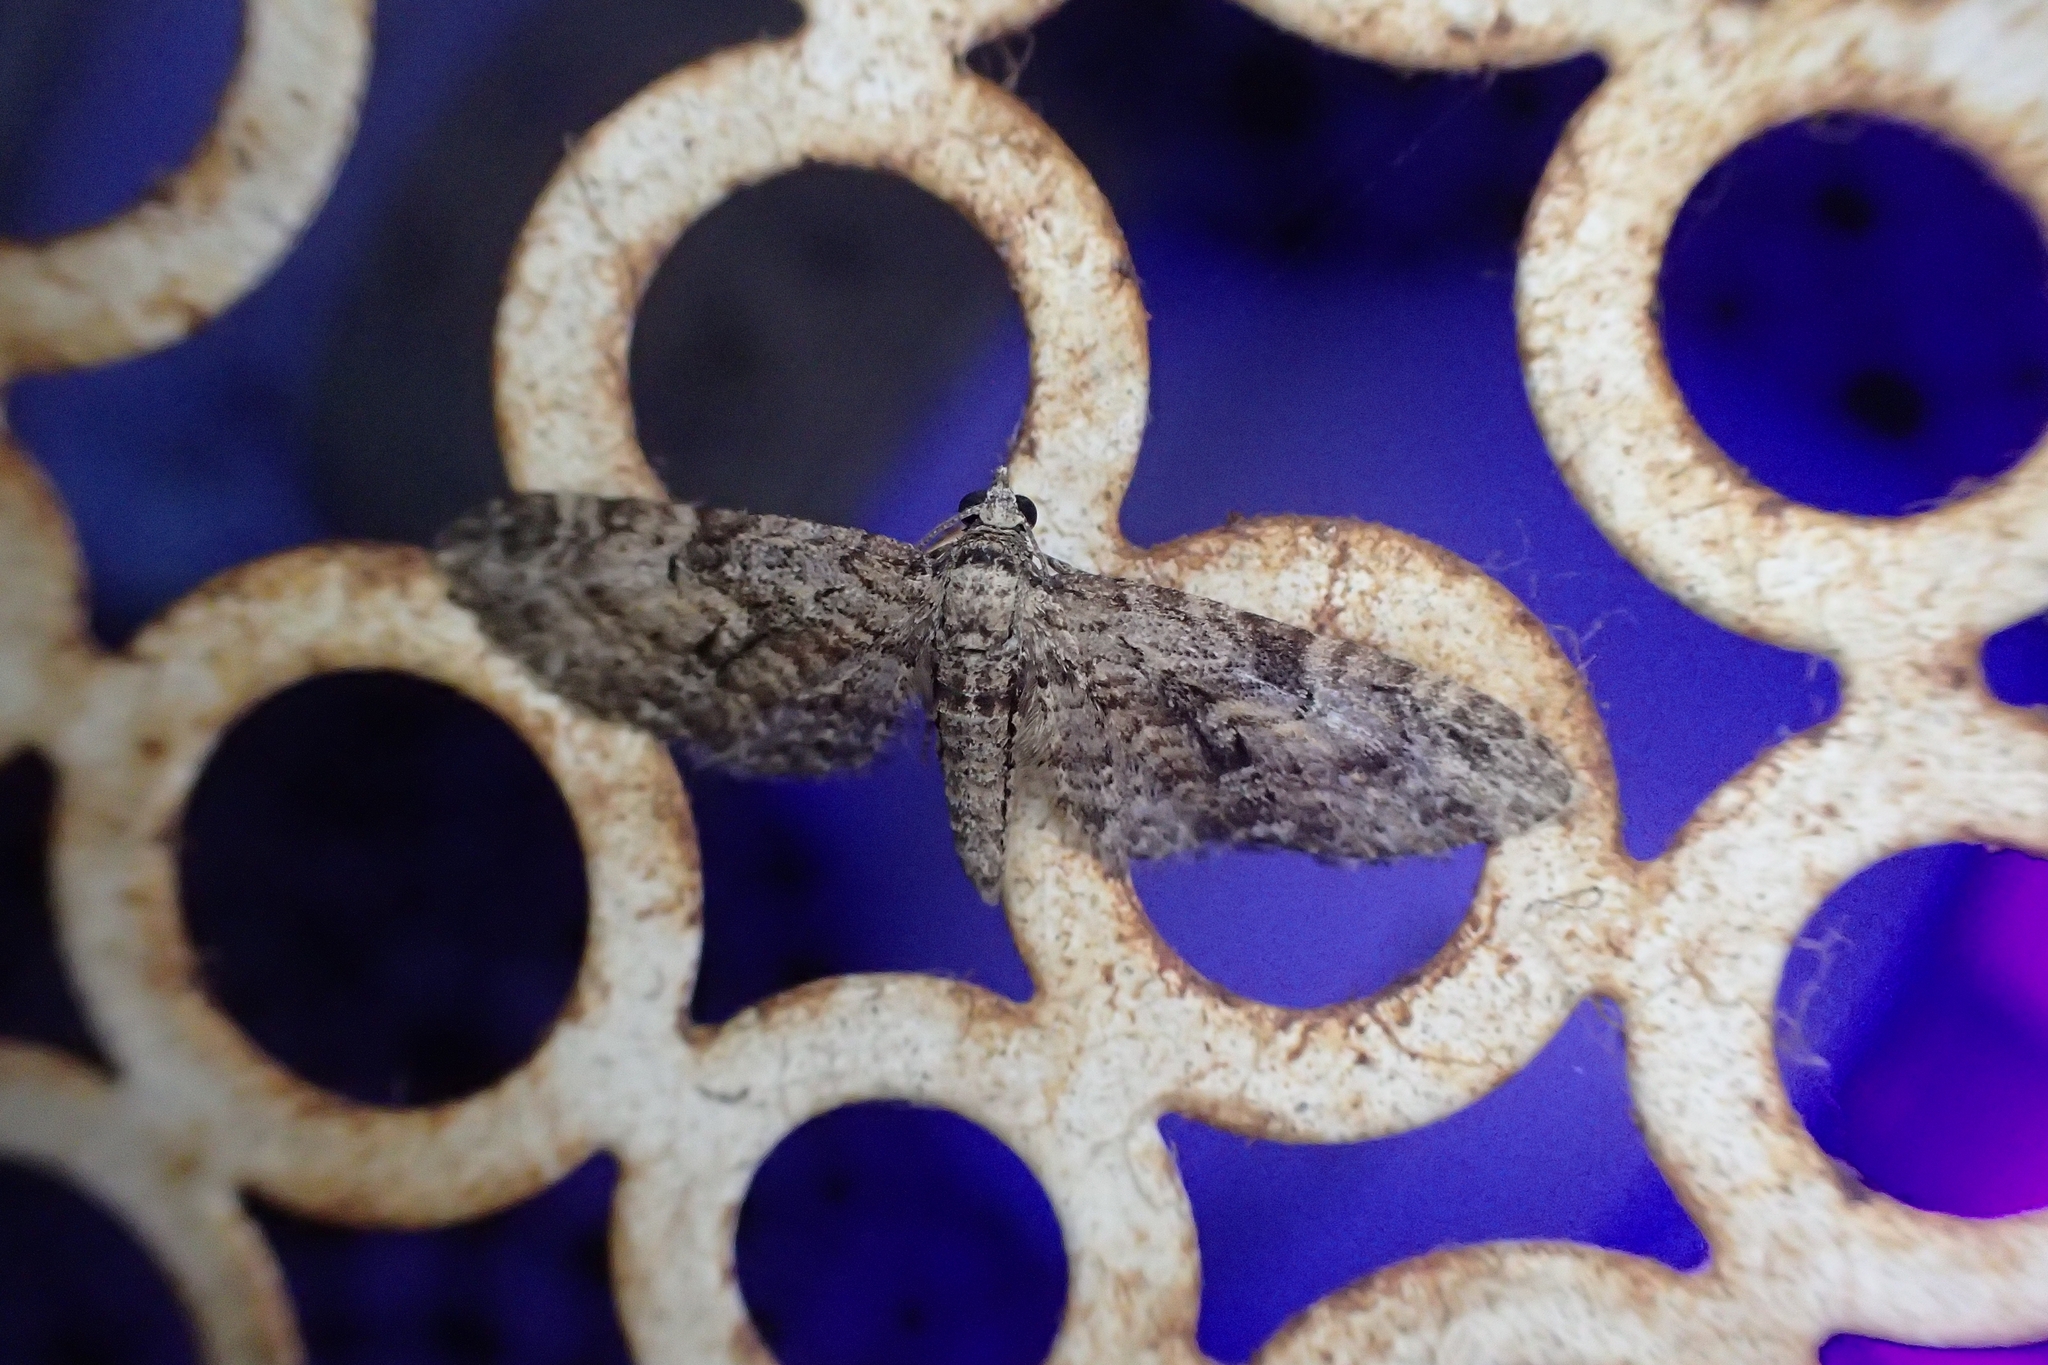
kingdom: Animalia
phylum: Arthropoda
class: Insecta
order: Lepidoptera
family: Geometridae
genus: Eupithecia
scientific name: Eupithecia dubiosa
